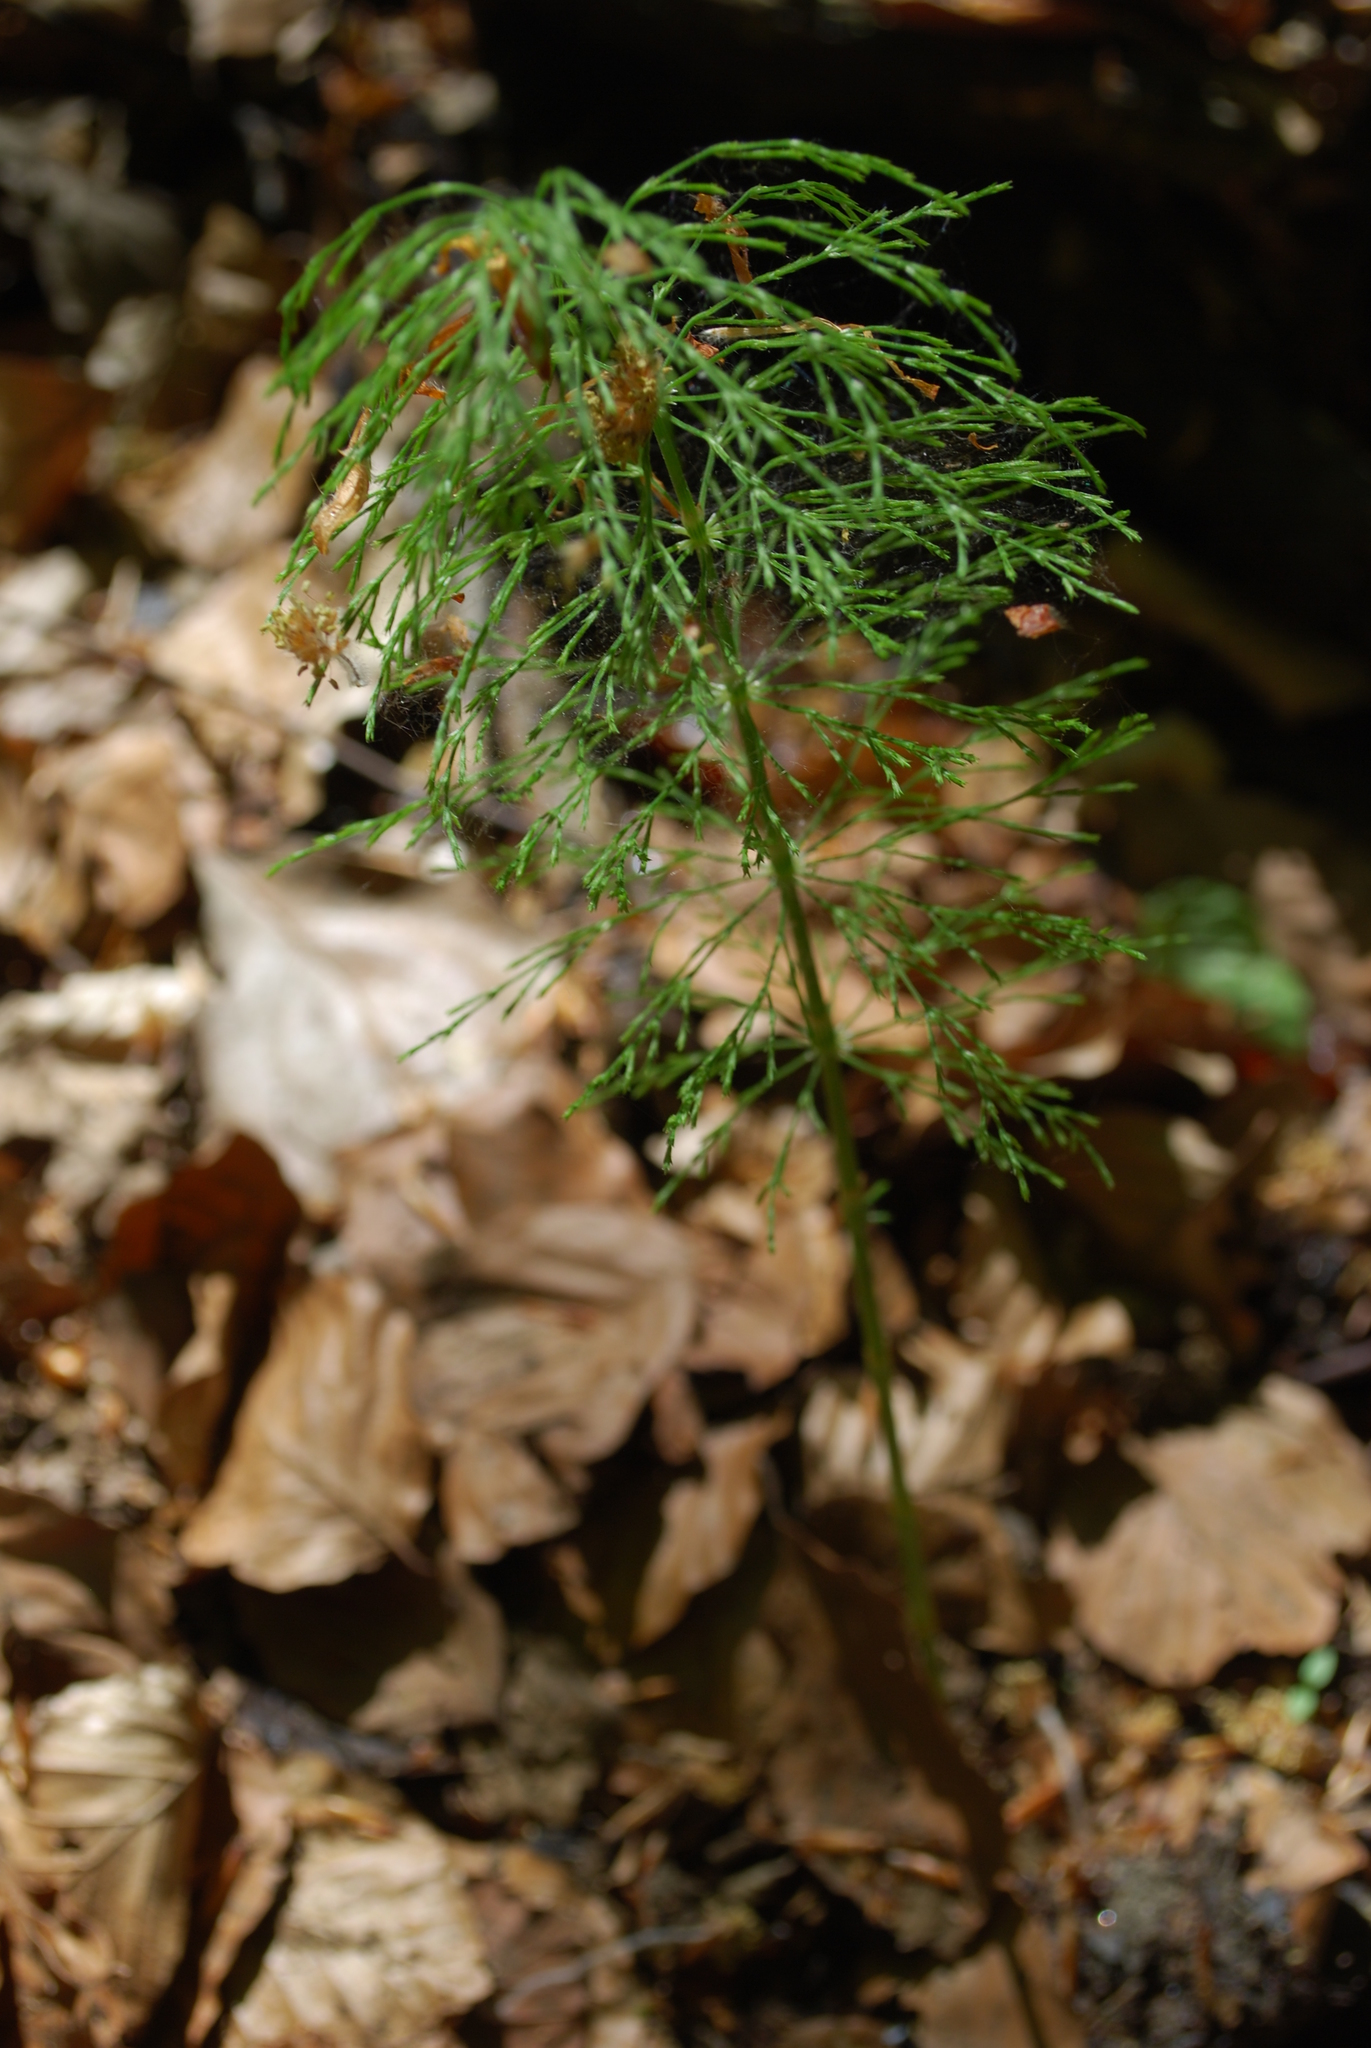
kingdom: Plantae
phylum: Tracheophyta
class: Polypodiopsida
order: Equisetales
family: Equisetaceae
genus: Equisetum
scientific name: Equisetum sylvaticum
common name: Wood horsetail
